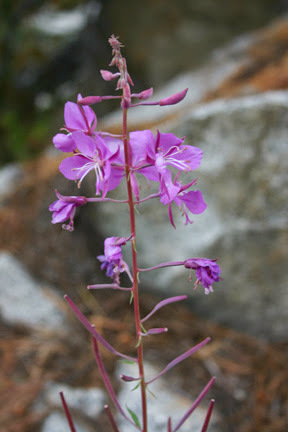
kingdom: Plantae
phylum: Tracheophyta
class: Magnoliopsida
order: Myrtales
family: Onagraceae
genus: Chamaenerion
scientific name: Chamaenerion angustifolium
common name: Fireweed
